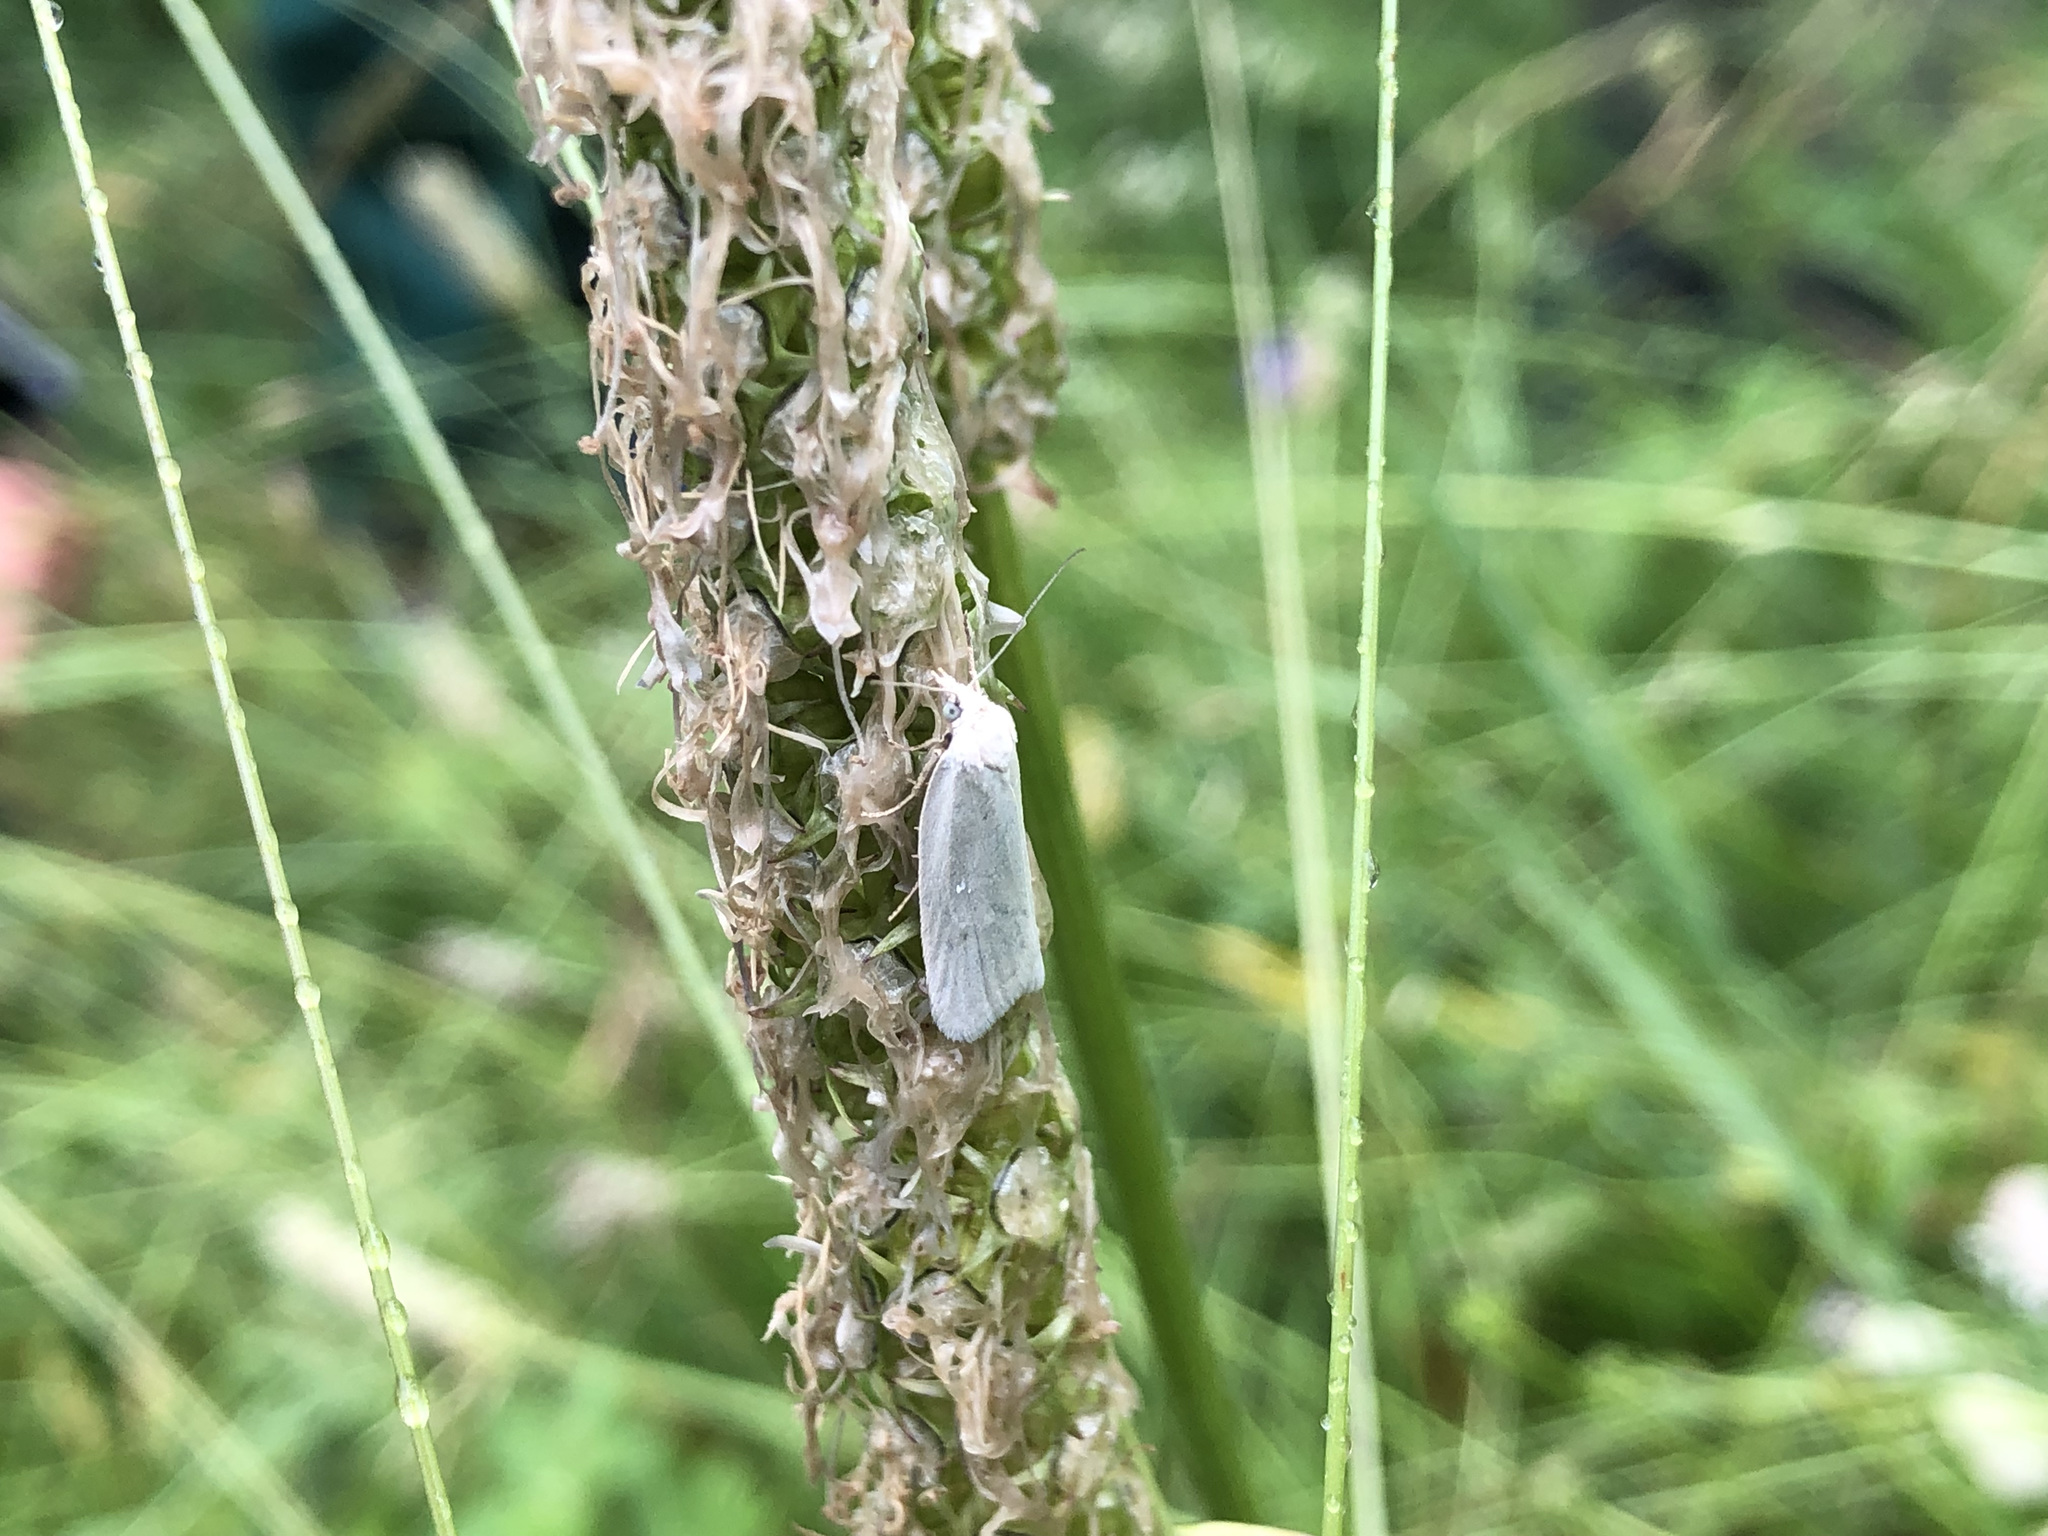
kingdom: Animalia
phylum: Arthropoda
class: Insecta
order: Lepidoptera
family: Tortricidae
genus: Eana
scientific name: Eana argentana
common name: Silver shade
